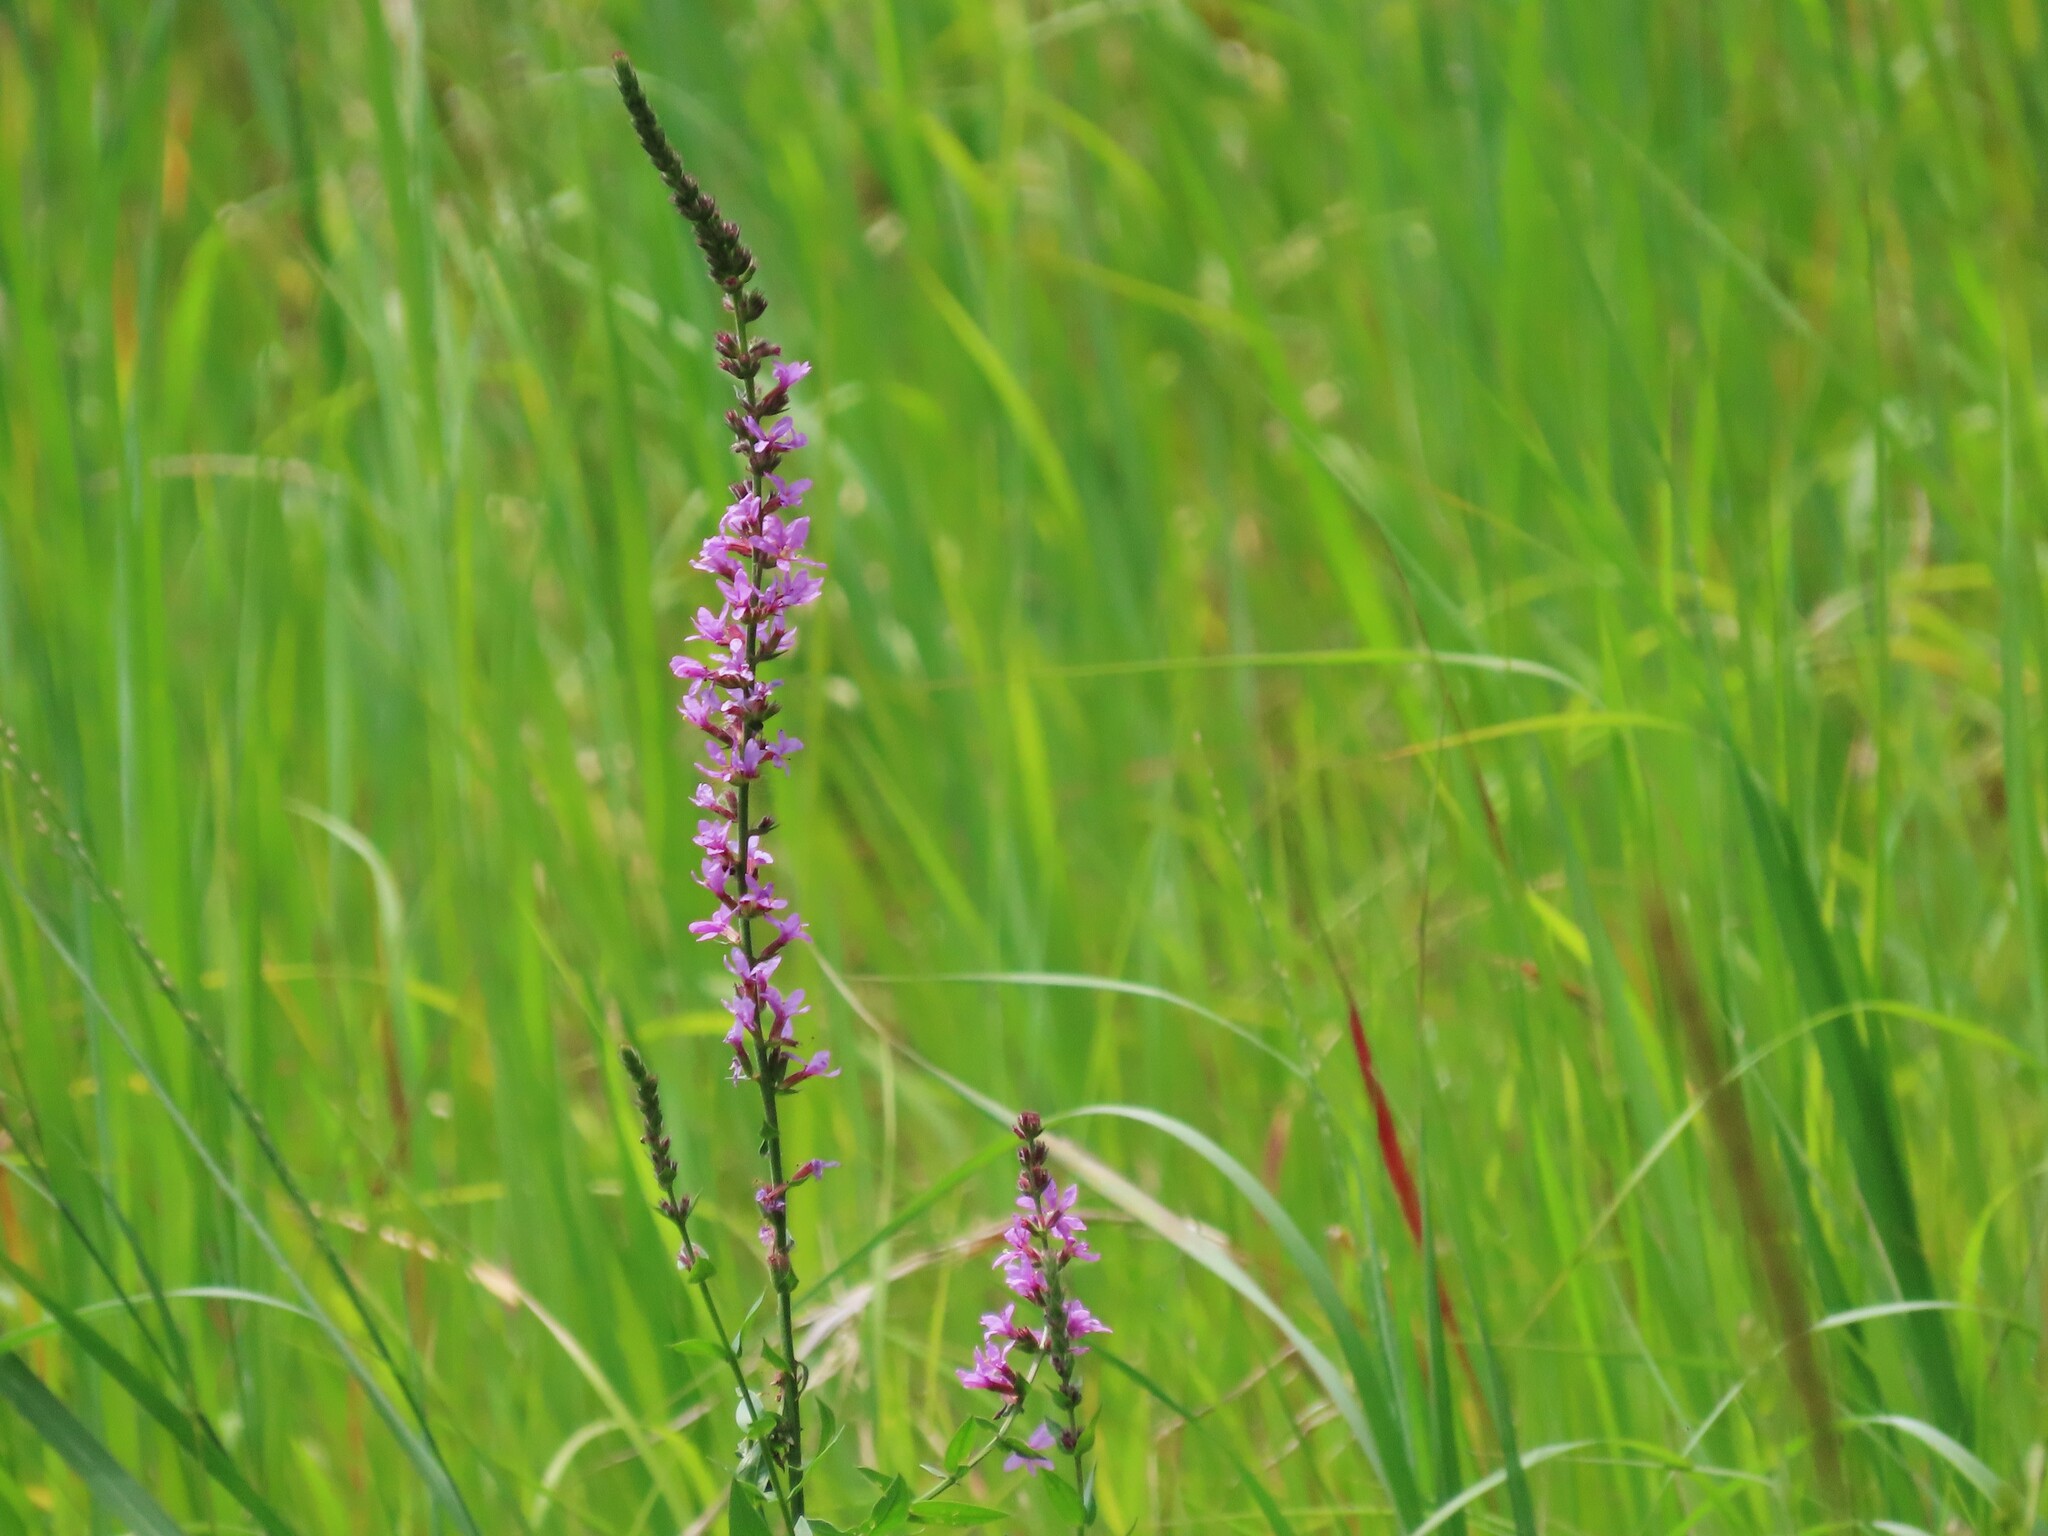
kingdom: Plantae
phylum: Tracheophyta
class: Magnoliopsida
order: Myrtales
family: Lythraceae
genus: Lythrum
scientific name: Lythrum salicaria
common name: Purple loosestrife
